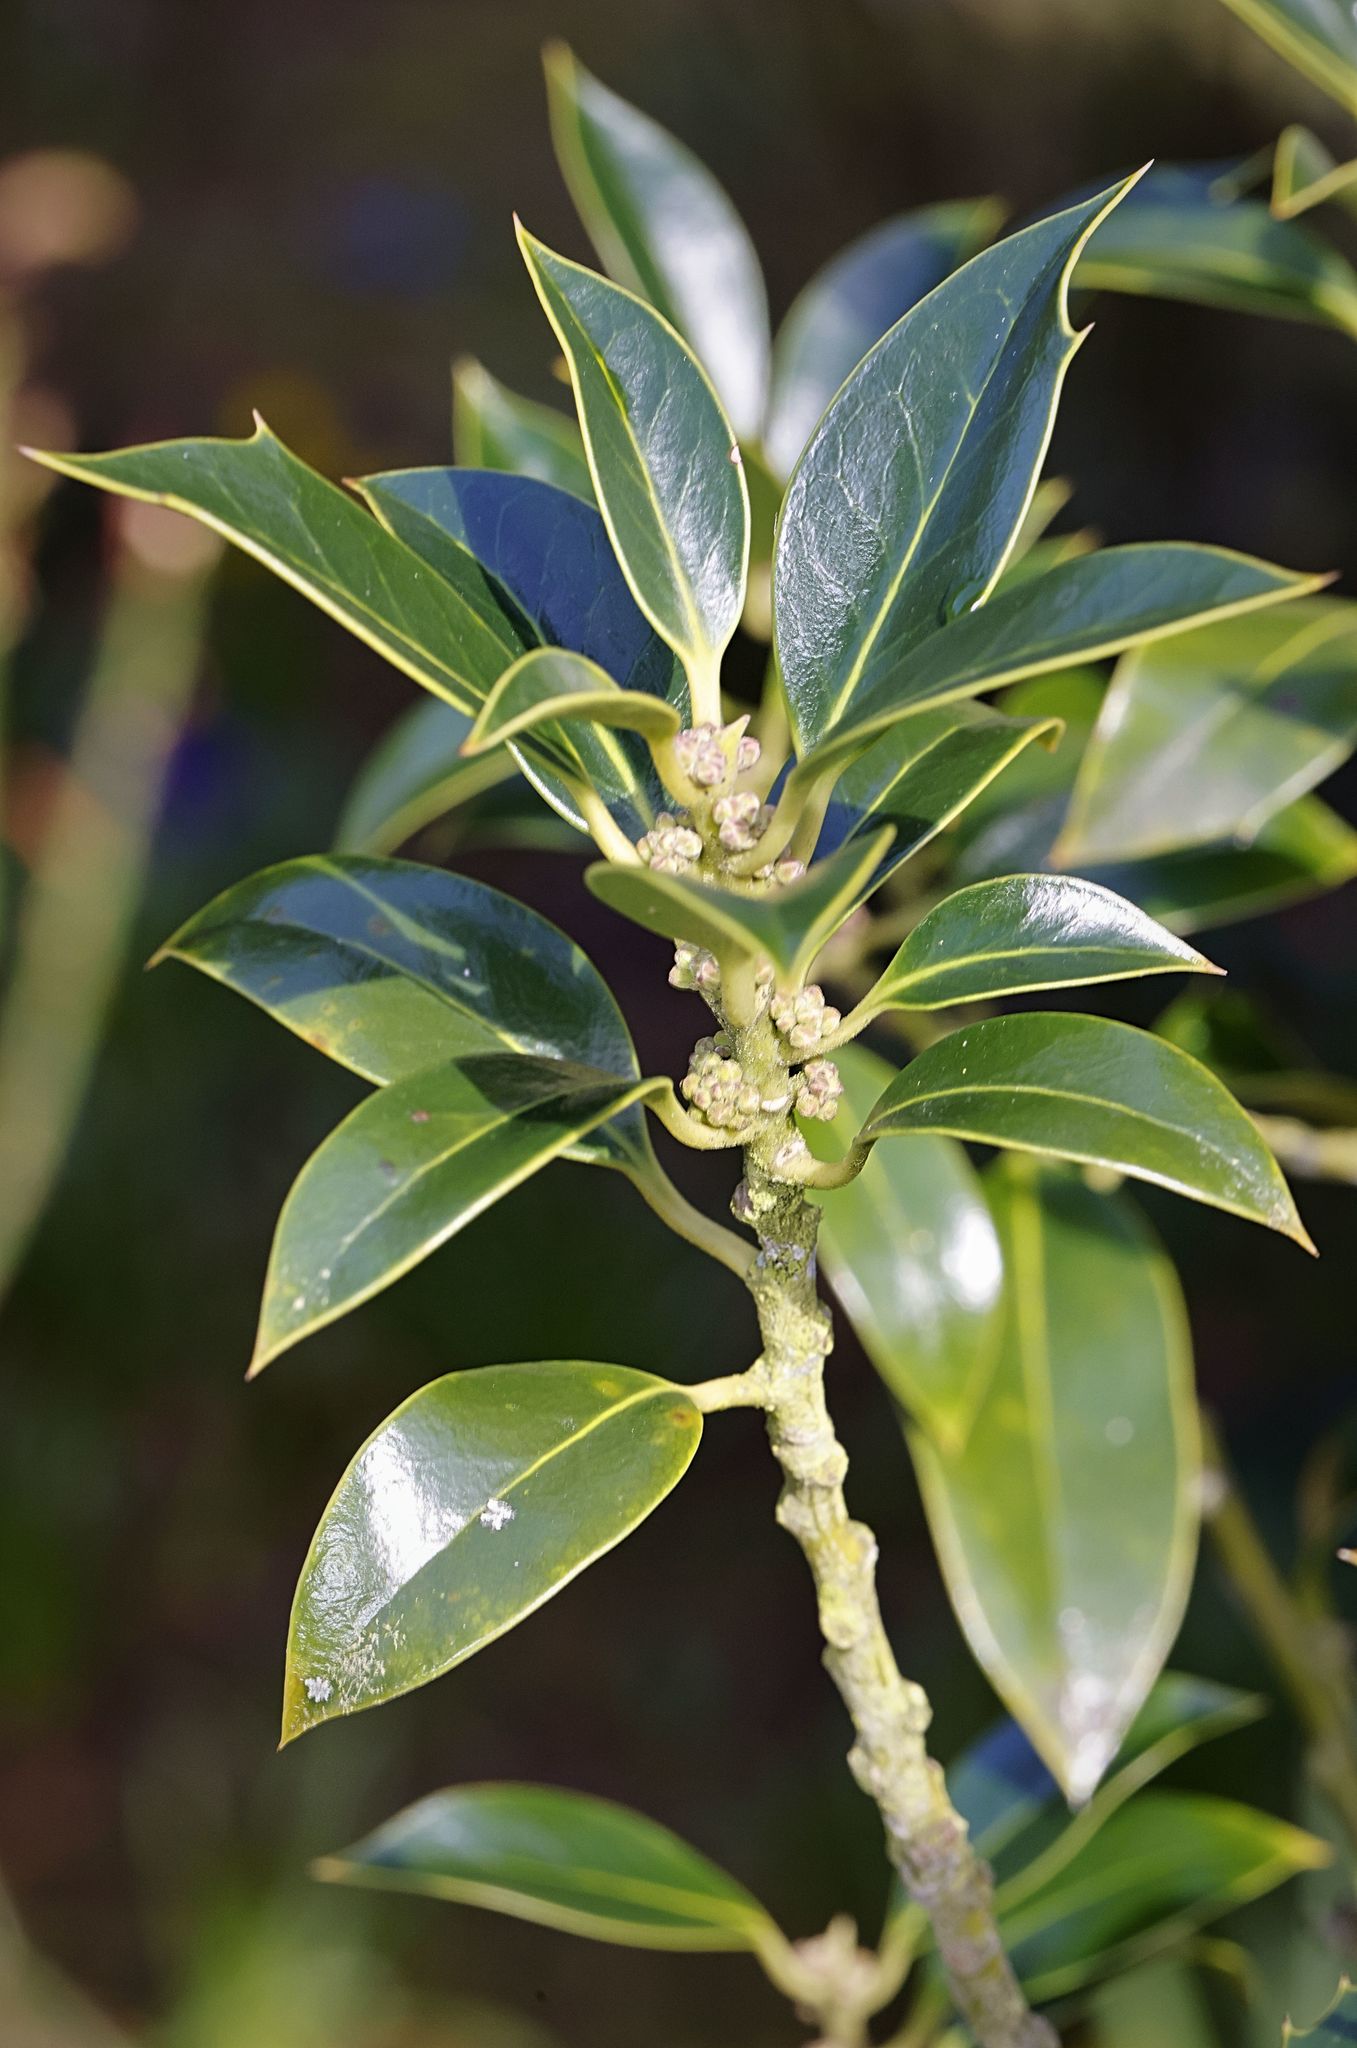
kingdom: Plantae
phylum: Tracheophyta
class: Magnoliopsida
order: Aquifoliales
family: Aquifoliaceae
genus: Ilex
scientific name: Ilex aquifolium
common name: English holly
